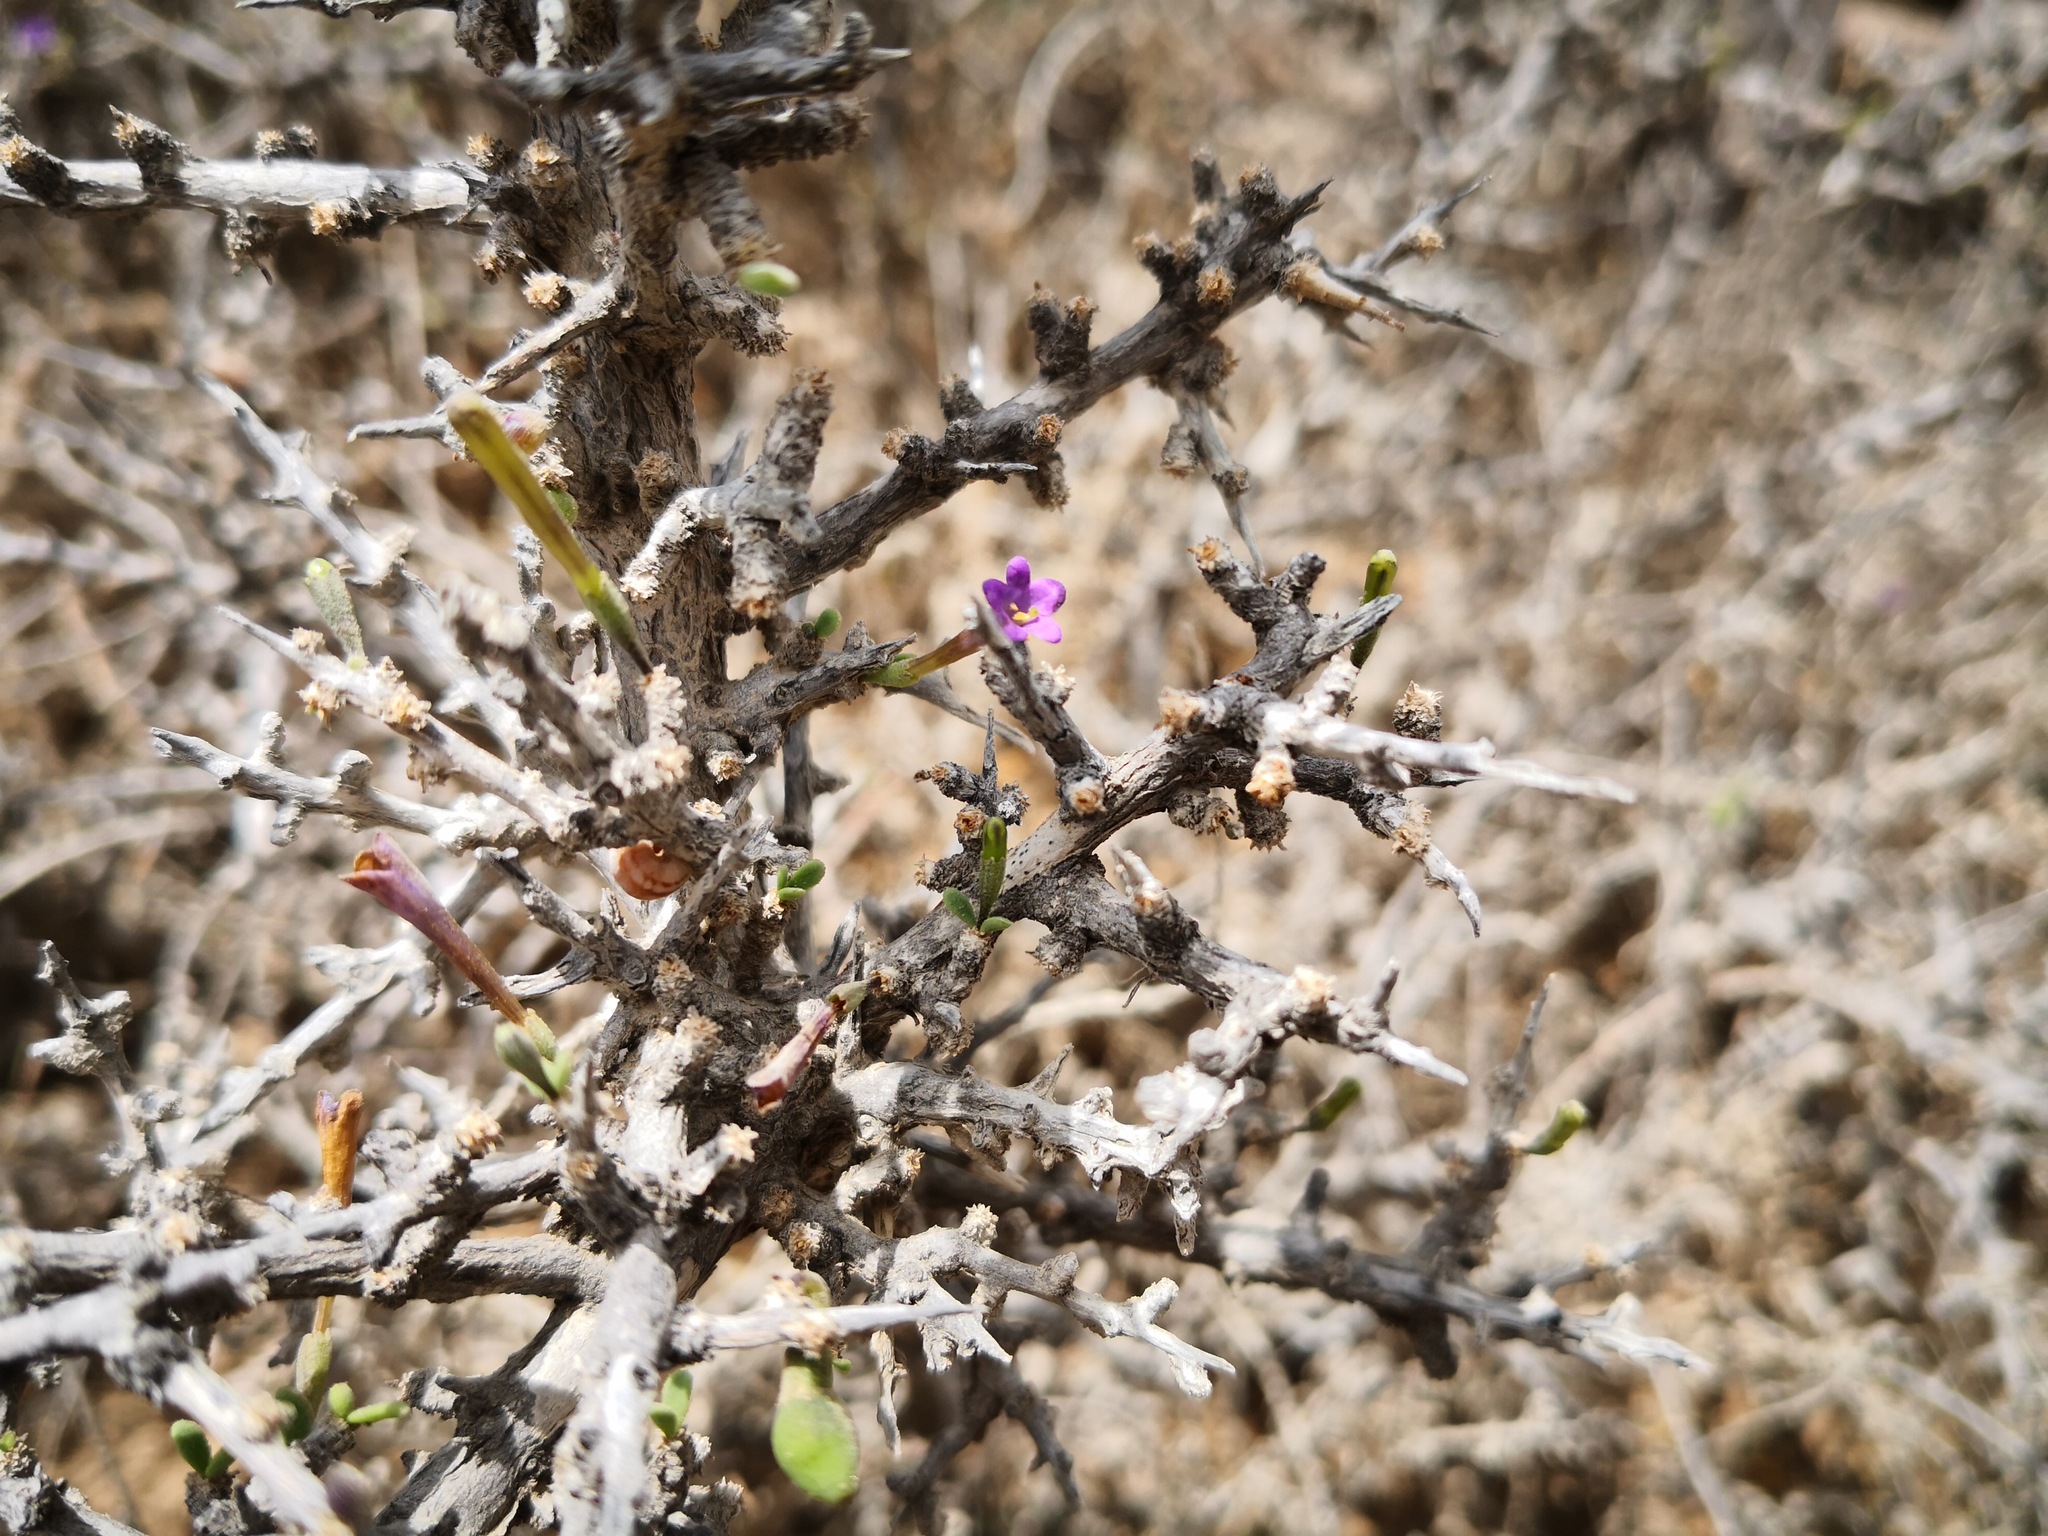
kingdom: Plantae
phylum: Tracheophyta
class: Magnoliopsida
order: Solanales
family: Solanaceae
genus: Lycium
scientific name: Lycium intricatum
